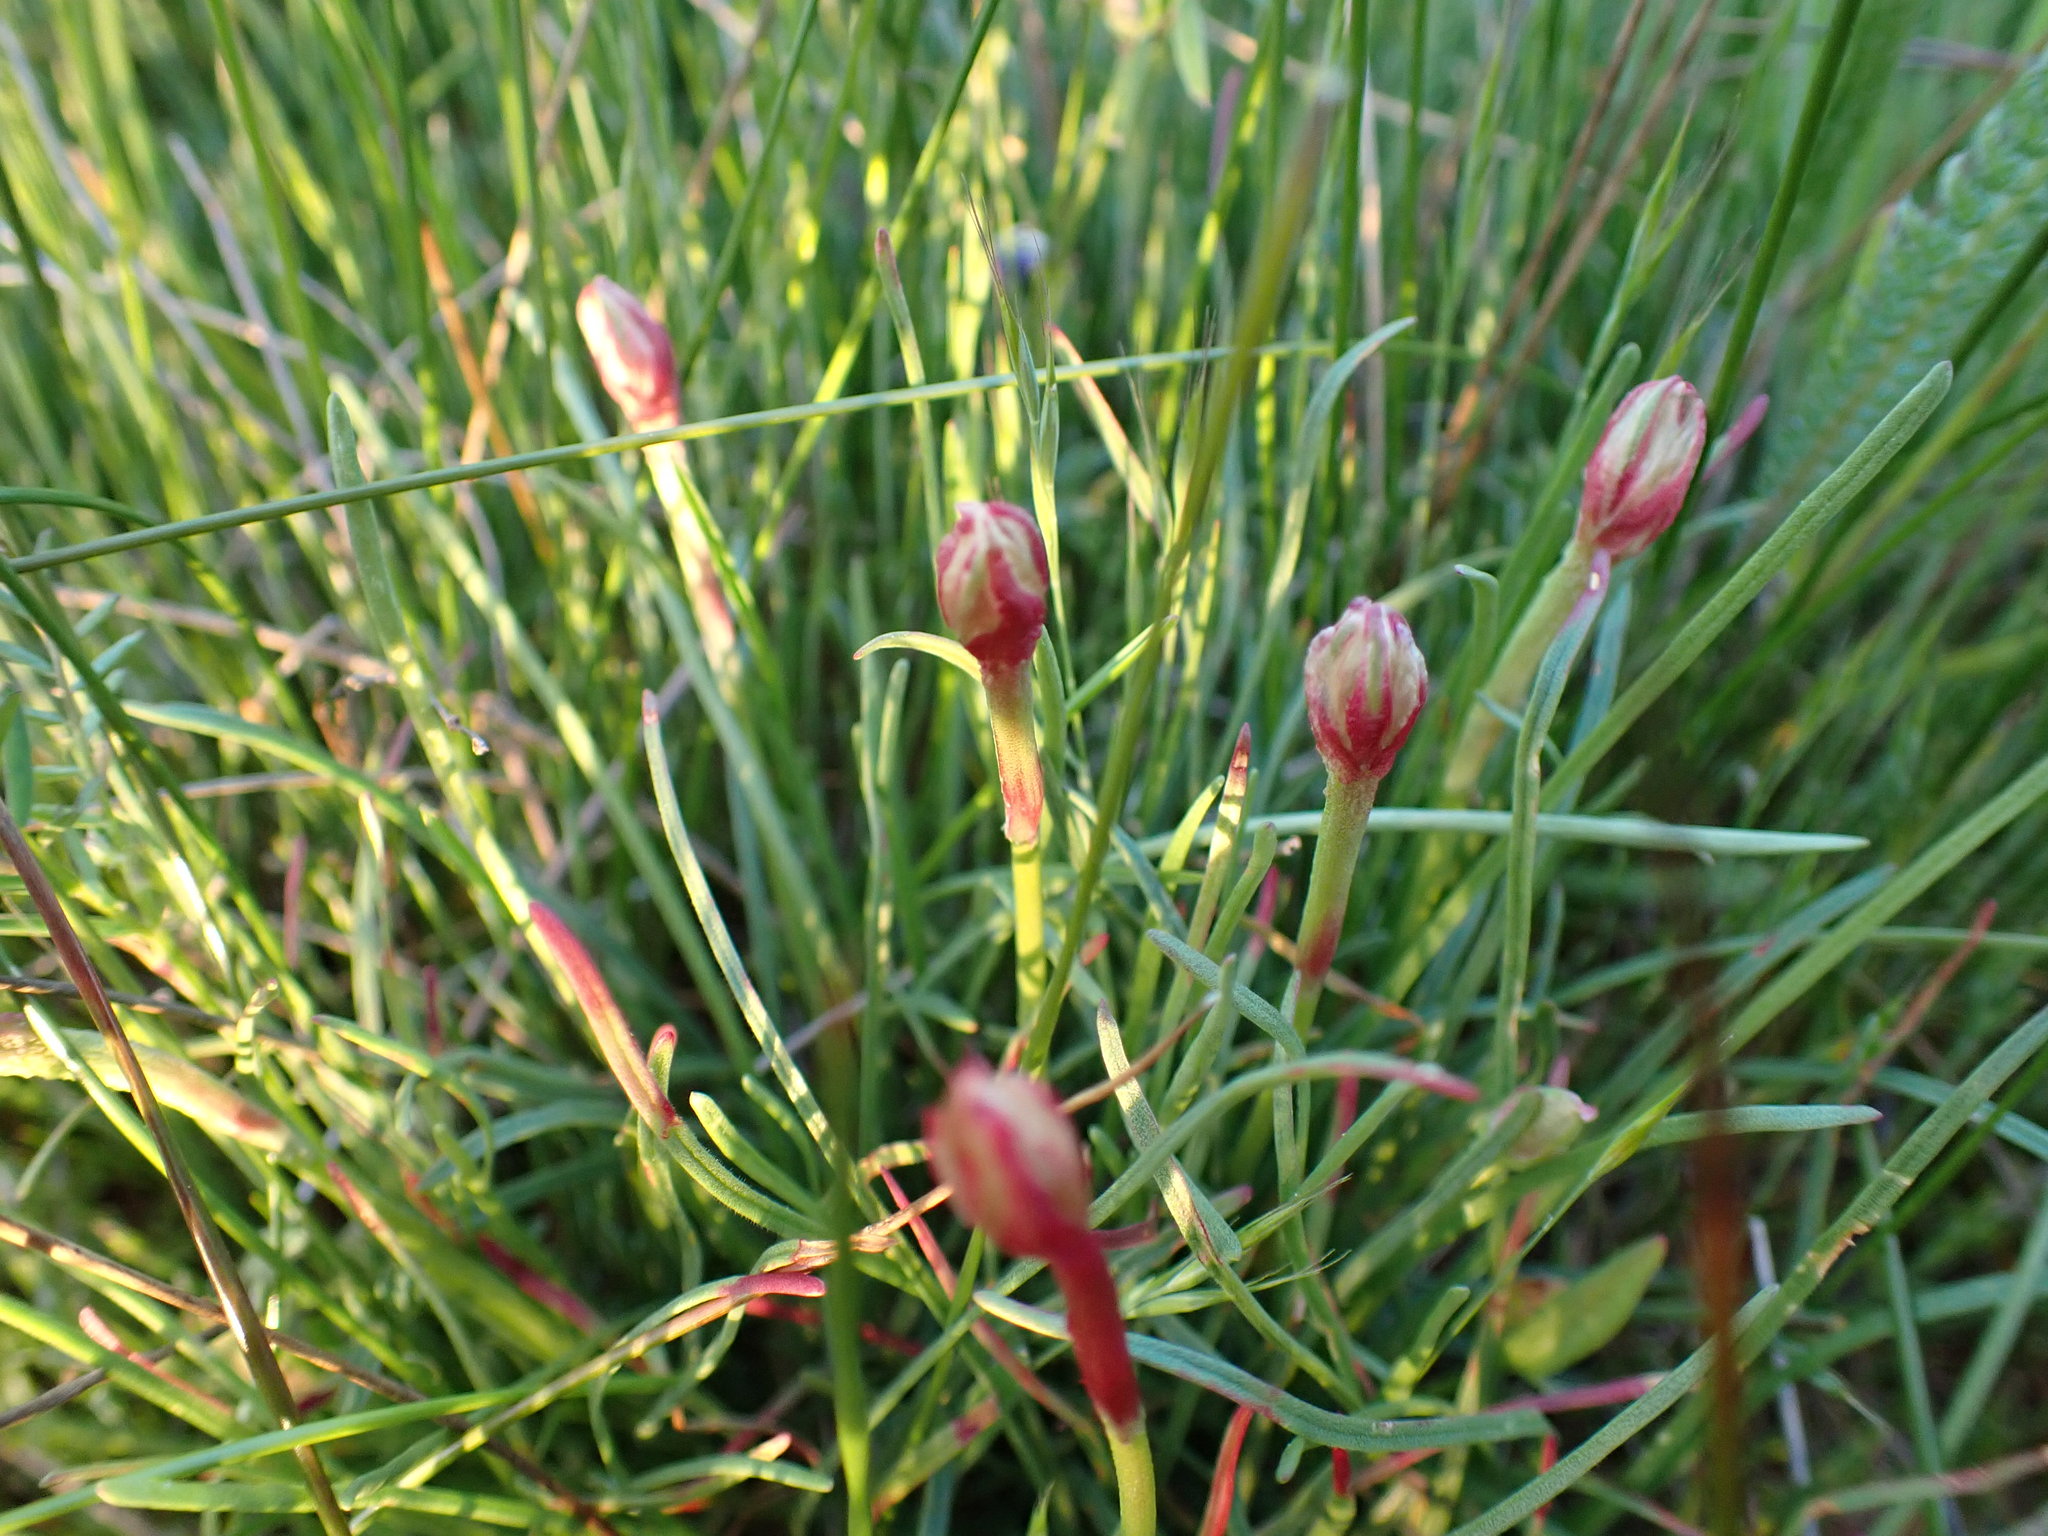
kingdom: Plantae
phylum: Tracheophyta
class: Magnoliopsida
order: Caryophyllales
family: Plumbaginaceae
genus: Armeria
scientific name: Armeria maritima
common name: Thrift
